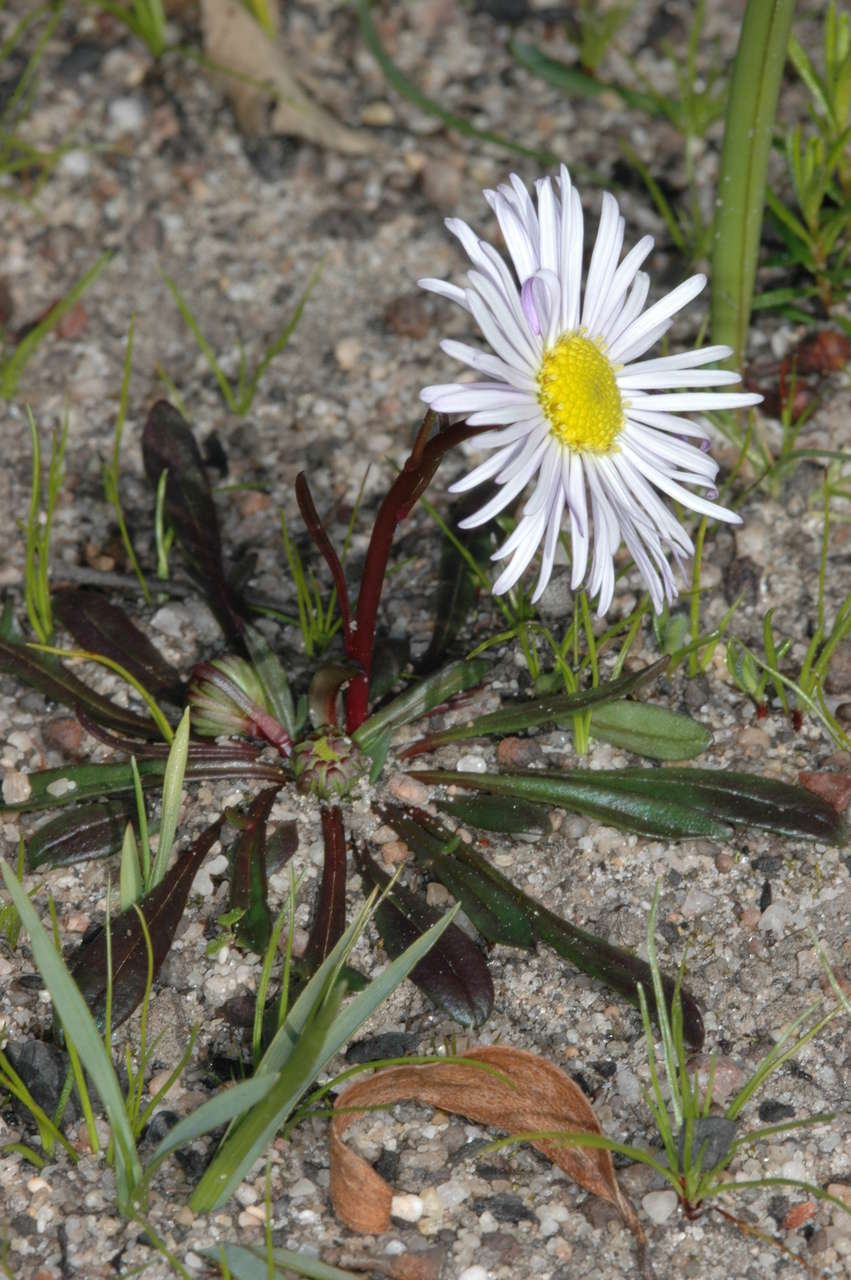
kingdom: Plantae
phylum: Tracheophyta
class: Magnoliopsida
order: Asterales
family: Asteraceae
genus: Allittia
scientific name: Allittia uliginosa
